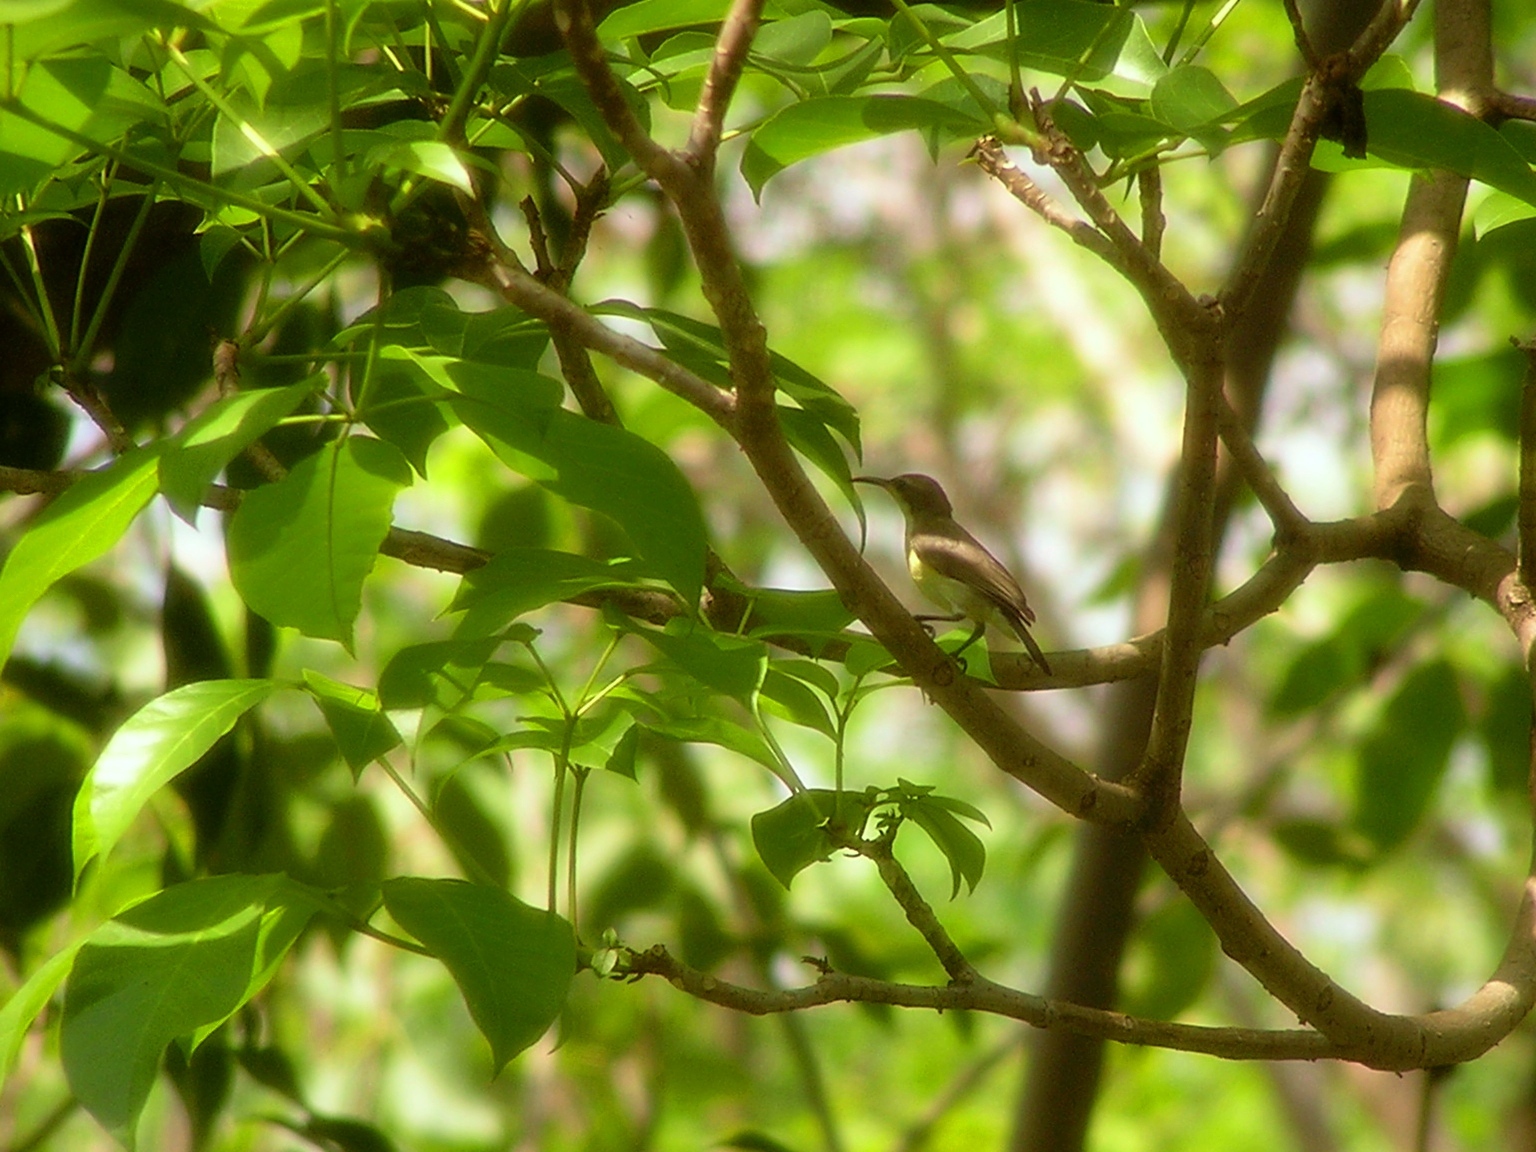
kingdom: Animalia
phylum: Chordata
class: Aves
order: Passeriformes
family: Nectariniidae
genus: Cinnyris
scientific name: Cinnyris
